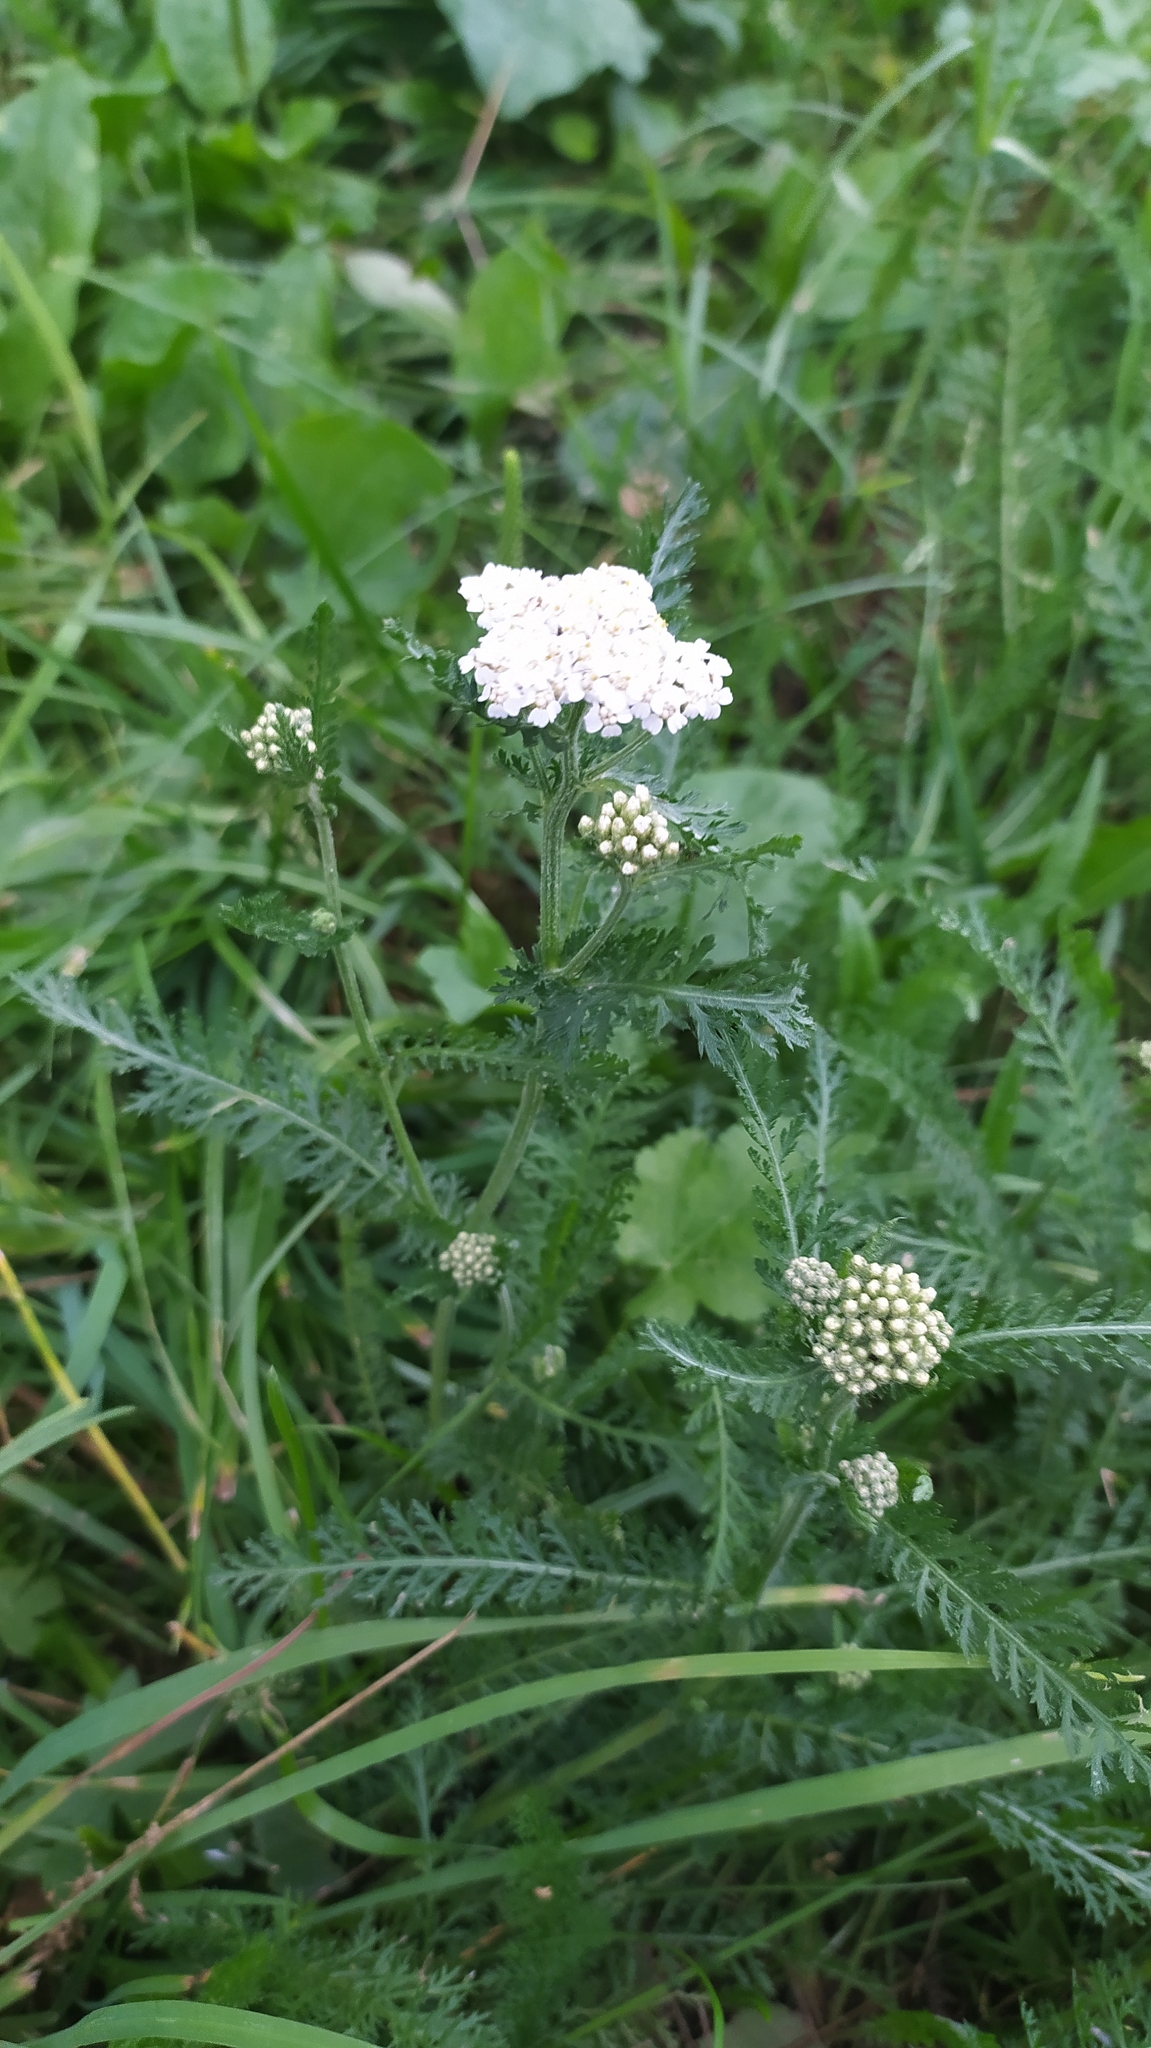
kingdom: Plantae
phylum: Tracheophyta
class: Magnoliopsida
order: Asterales
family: Asteraceae
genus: Achillea
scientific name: Achillea millefolium
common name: Yarrow
